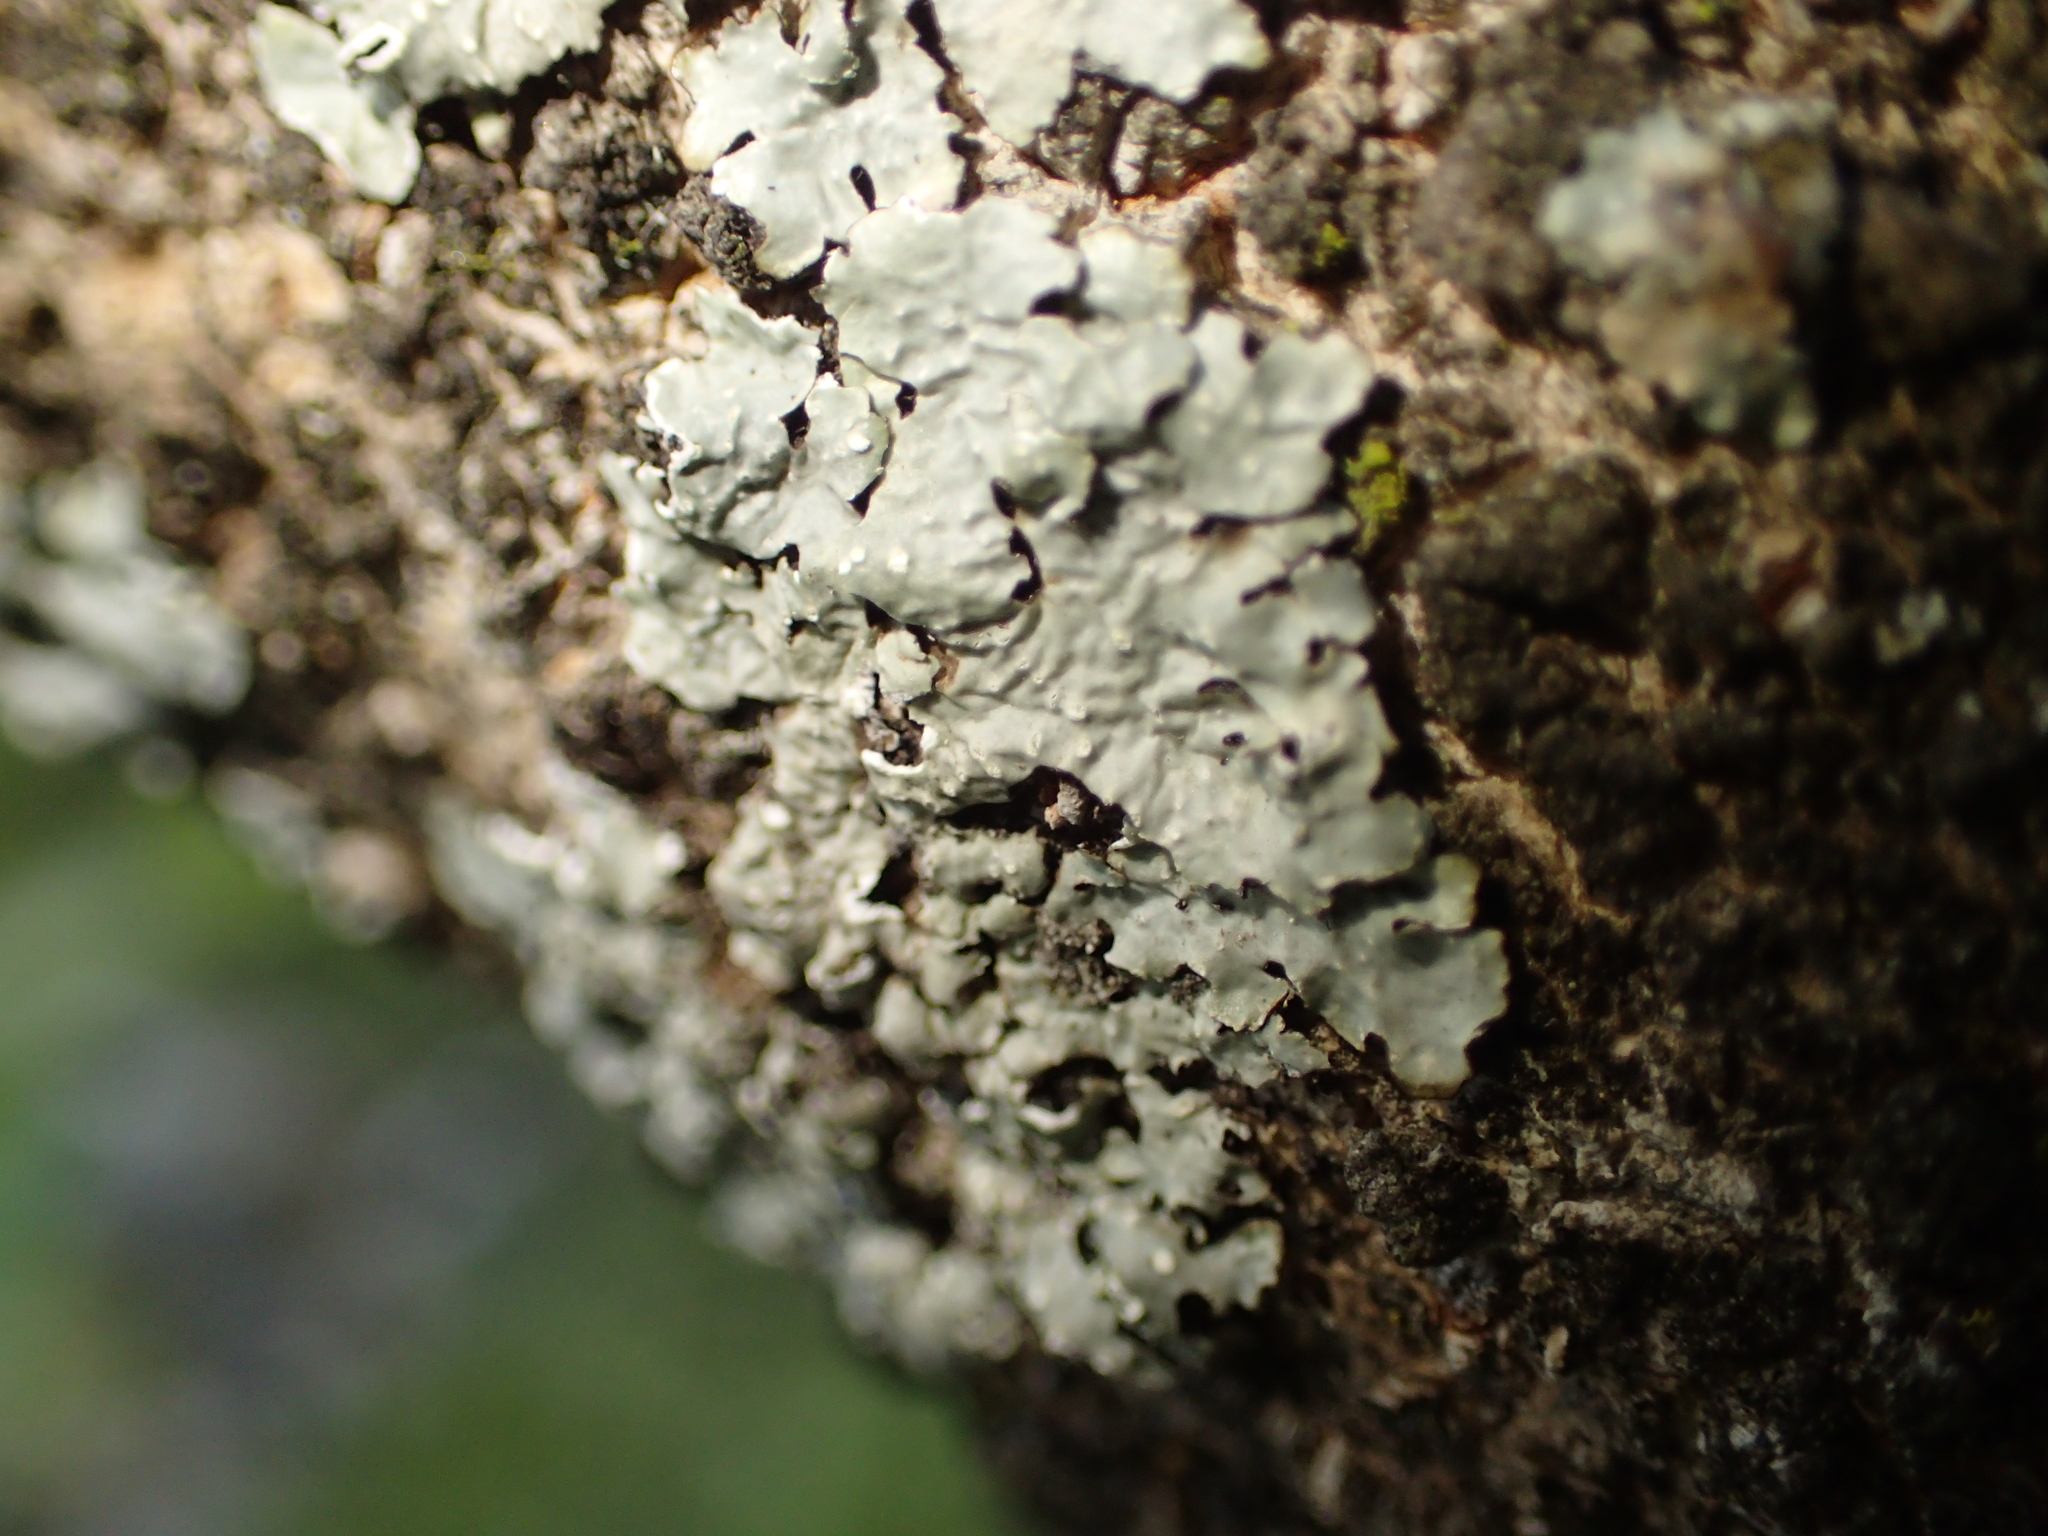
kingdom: Fungi
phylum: Ascomycota
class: Lecanoromycetes
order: Lecanorales
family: Parmeliaceae
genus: Punctelia
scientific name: Punctelia
